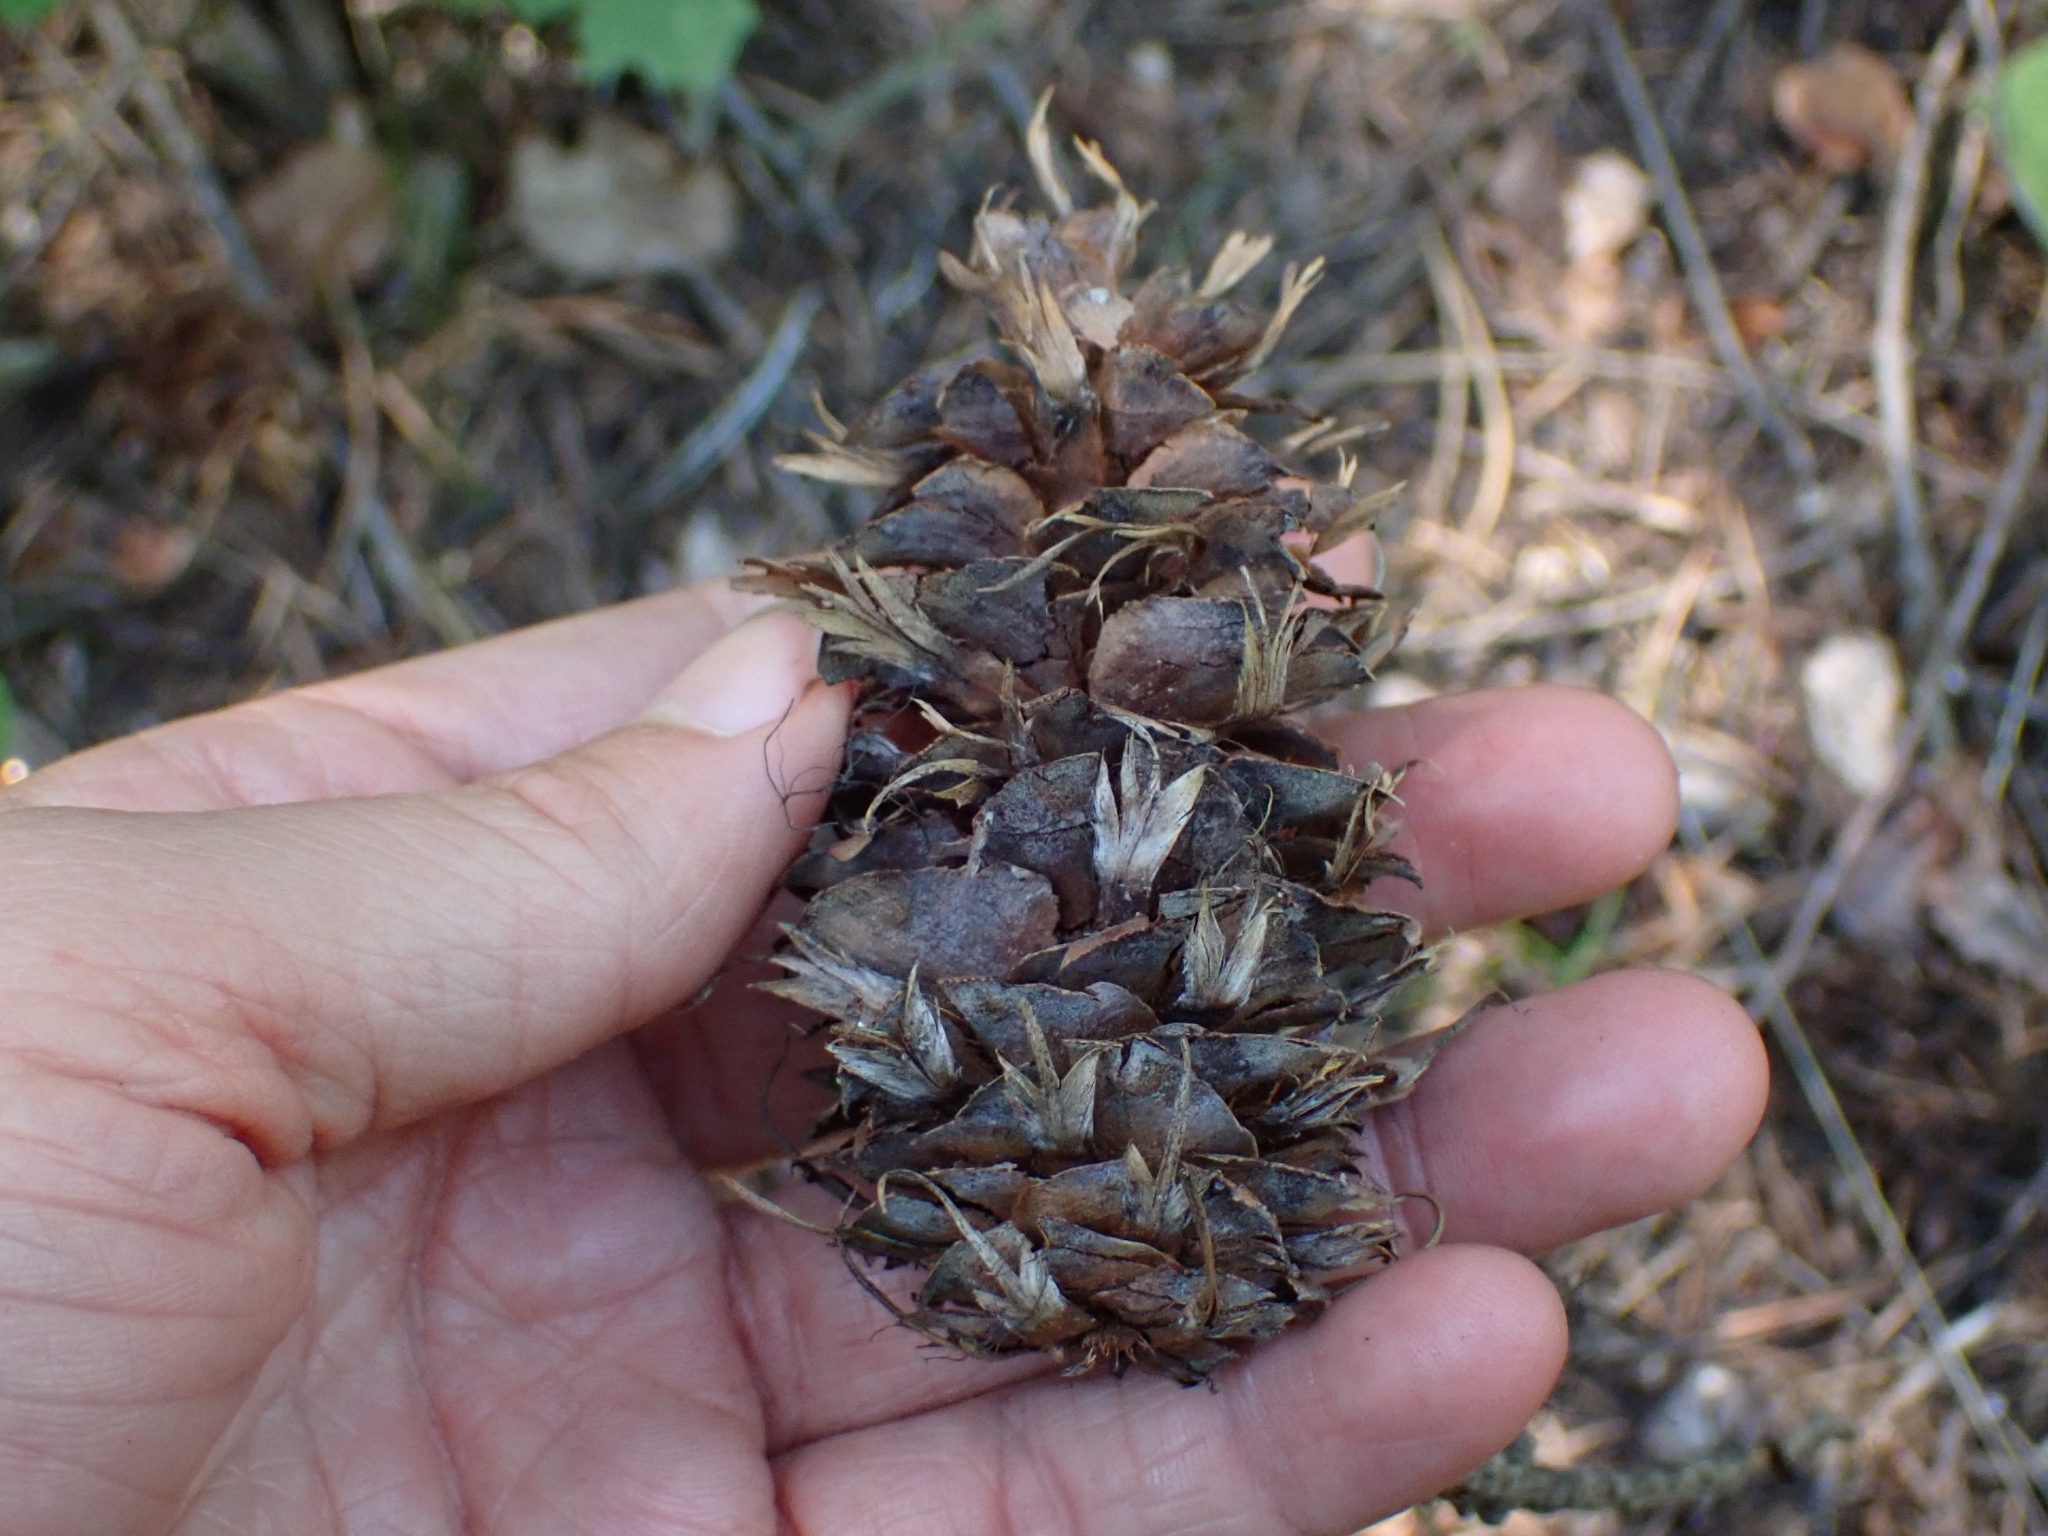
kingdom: Plantae
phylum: Tracheophyta
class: Pinopsida
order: Pinales
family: Pinaceae
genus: Pseudotsuga
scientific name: Pseudotsuga menziesii
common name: Douglas fir
